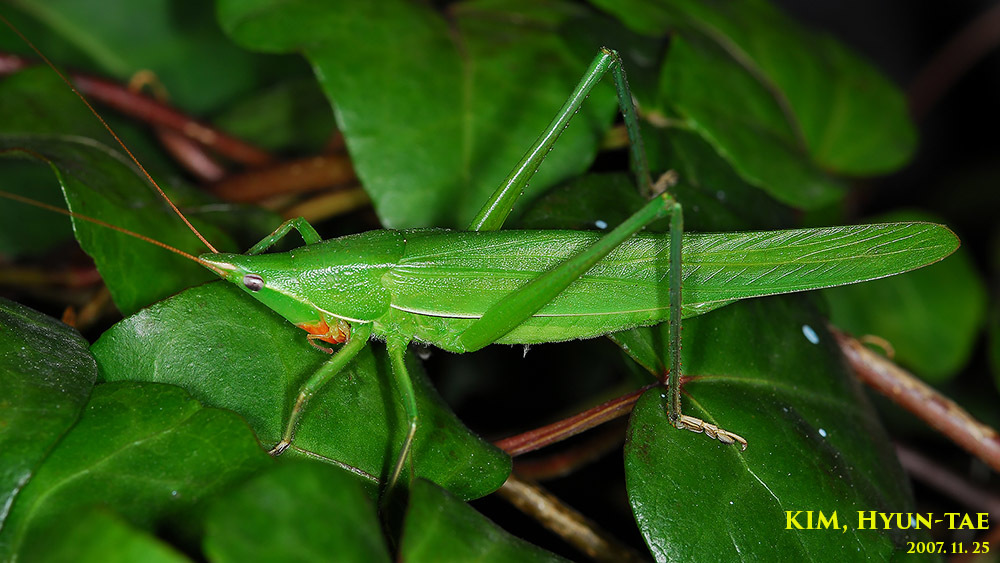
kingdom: Animalia
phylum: Arthropoda
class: Insecta
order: Orthoptera
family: Tettigoniidae
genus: Euconocephalus
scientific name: Euconocephalus varius
